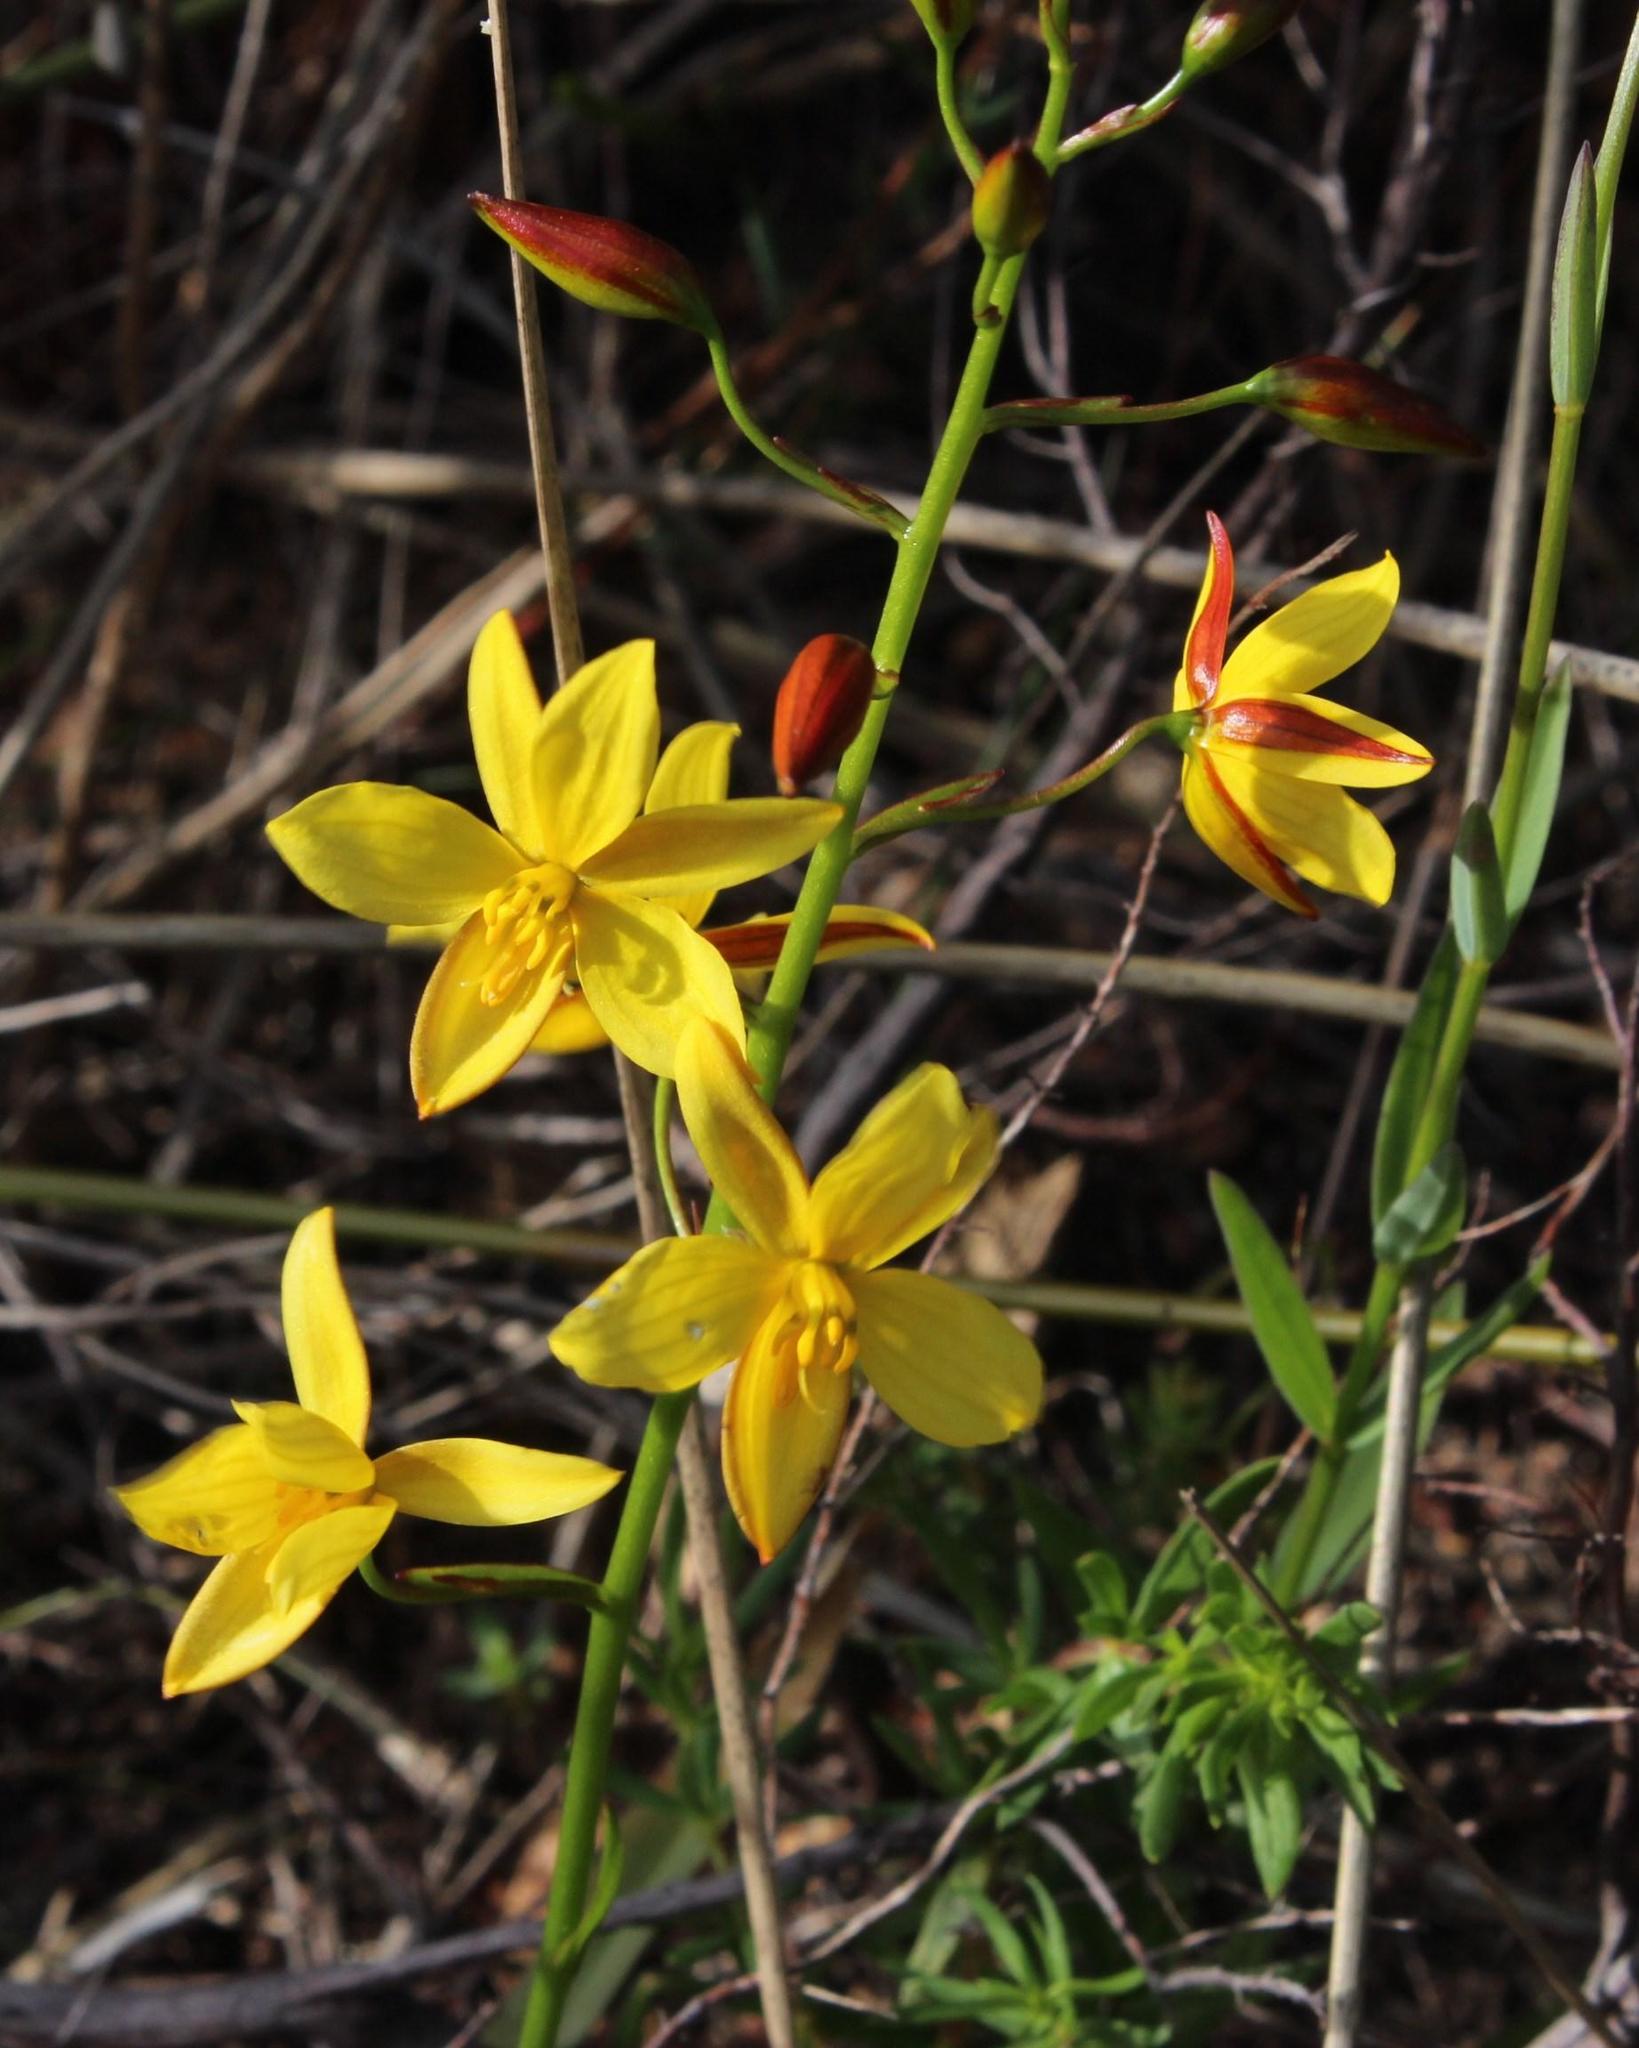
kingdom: Plantae
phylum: Tracheophyta
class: Liliopsida
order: Asparagales
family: Tecophilaeaceae
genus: Cyanella
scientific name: Cyanella lutea
